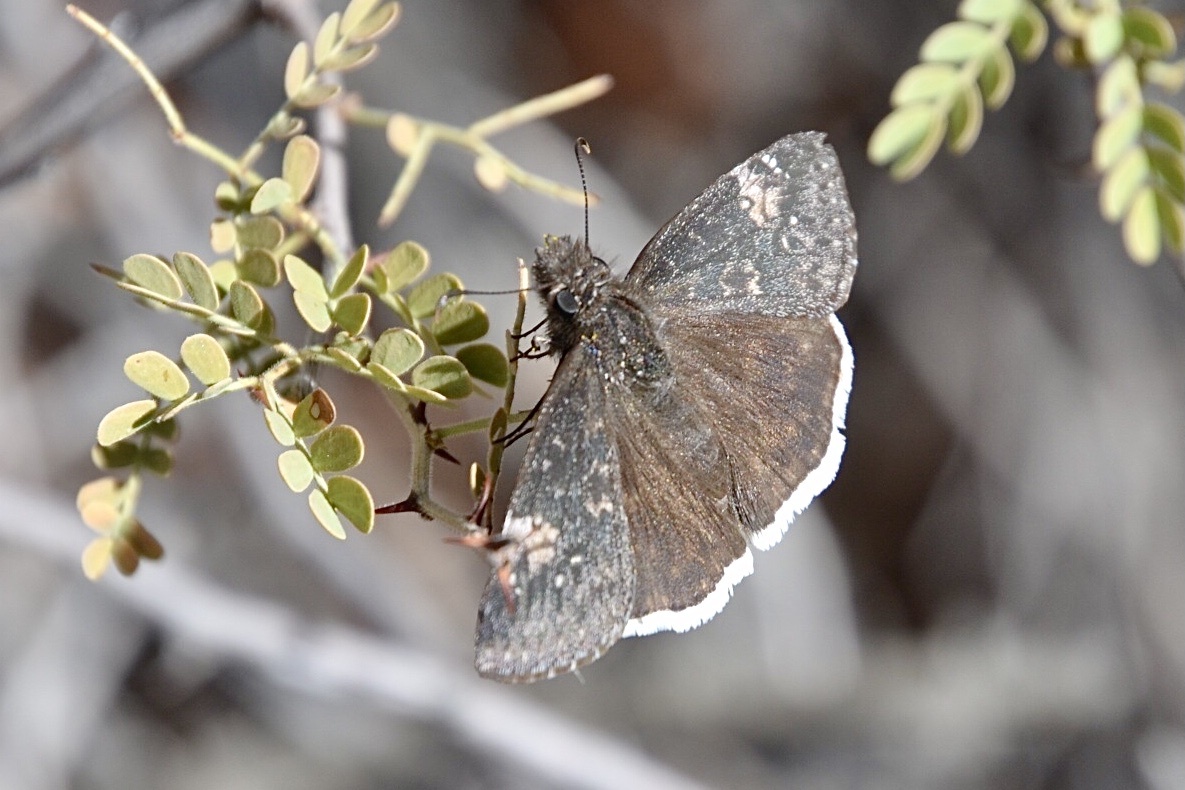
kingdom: Animalia
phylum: Arthropoda
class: Insecta
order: Lepidoptera
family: Hesperiidae
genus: Erynnis
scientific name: Erynnis funeralis
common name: Funereal duskywing
